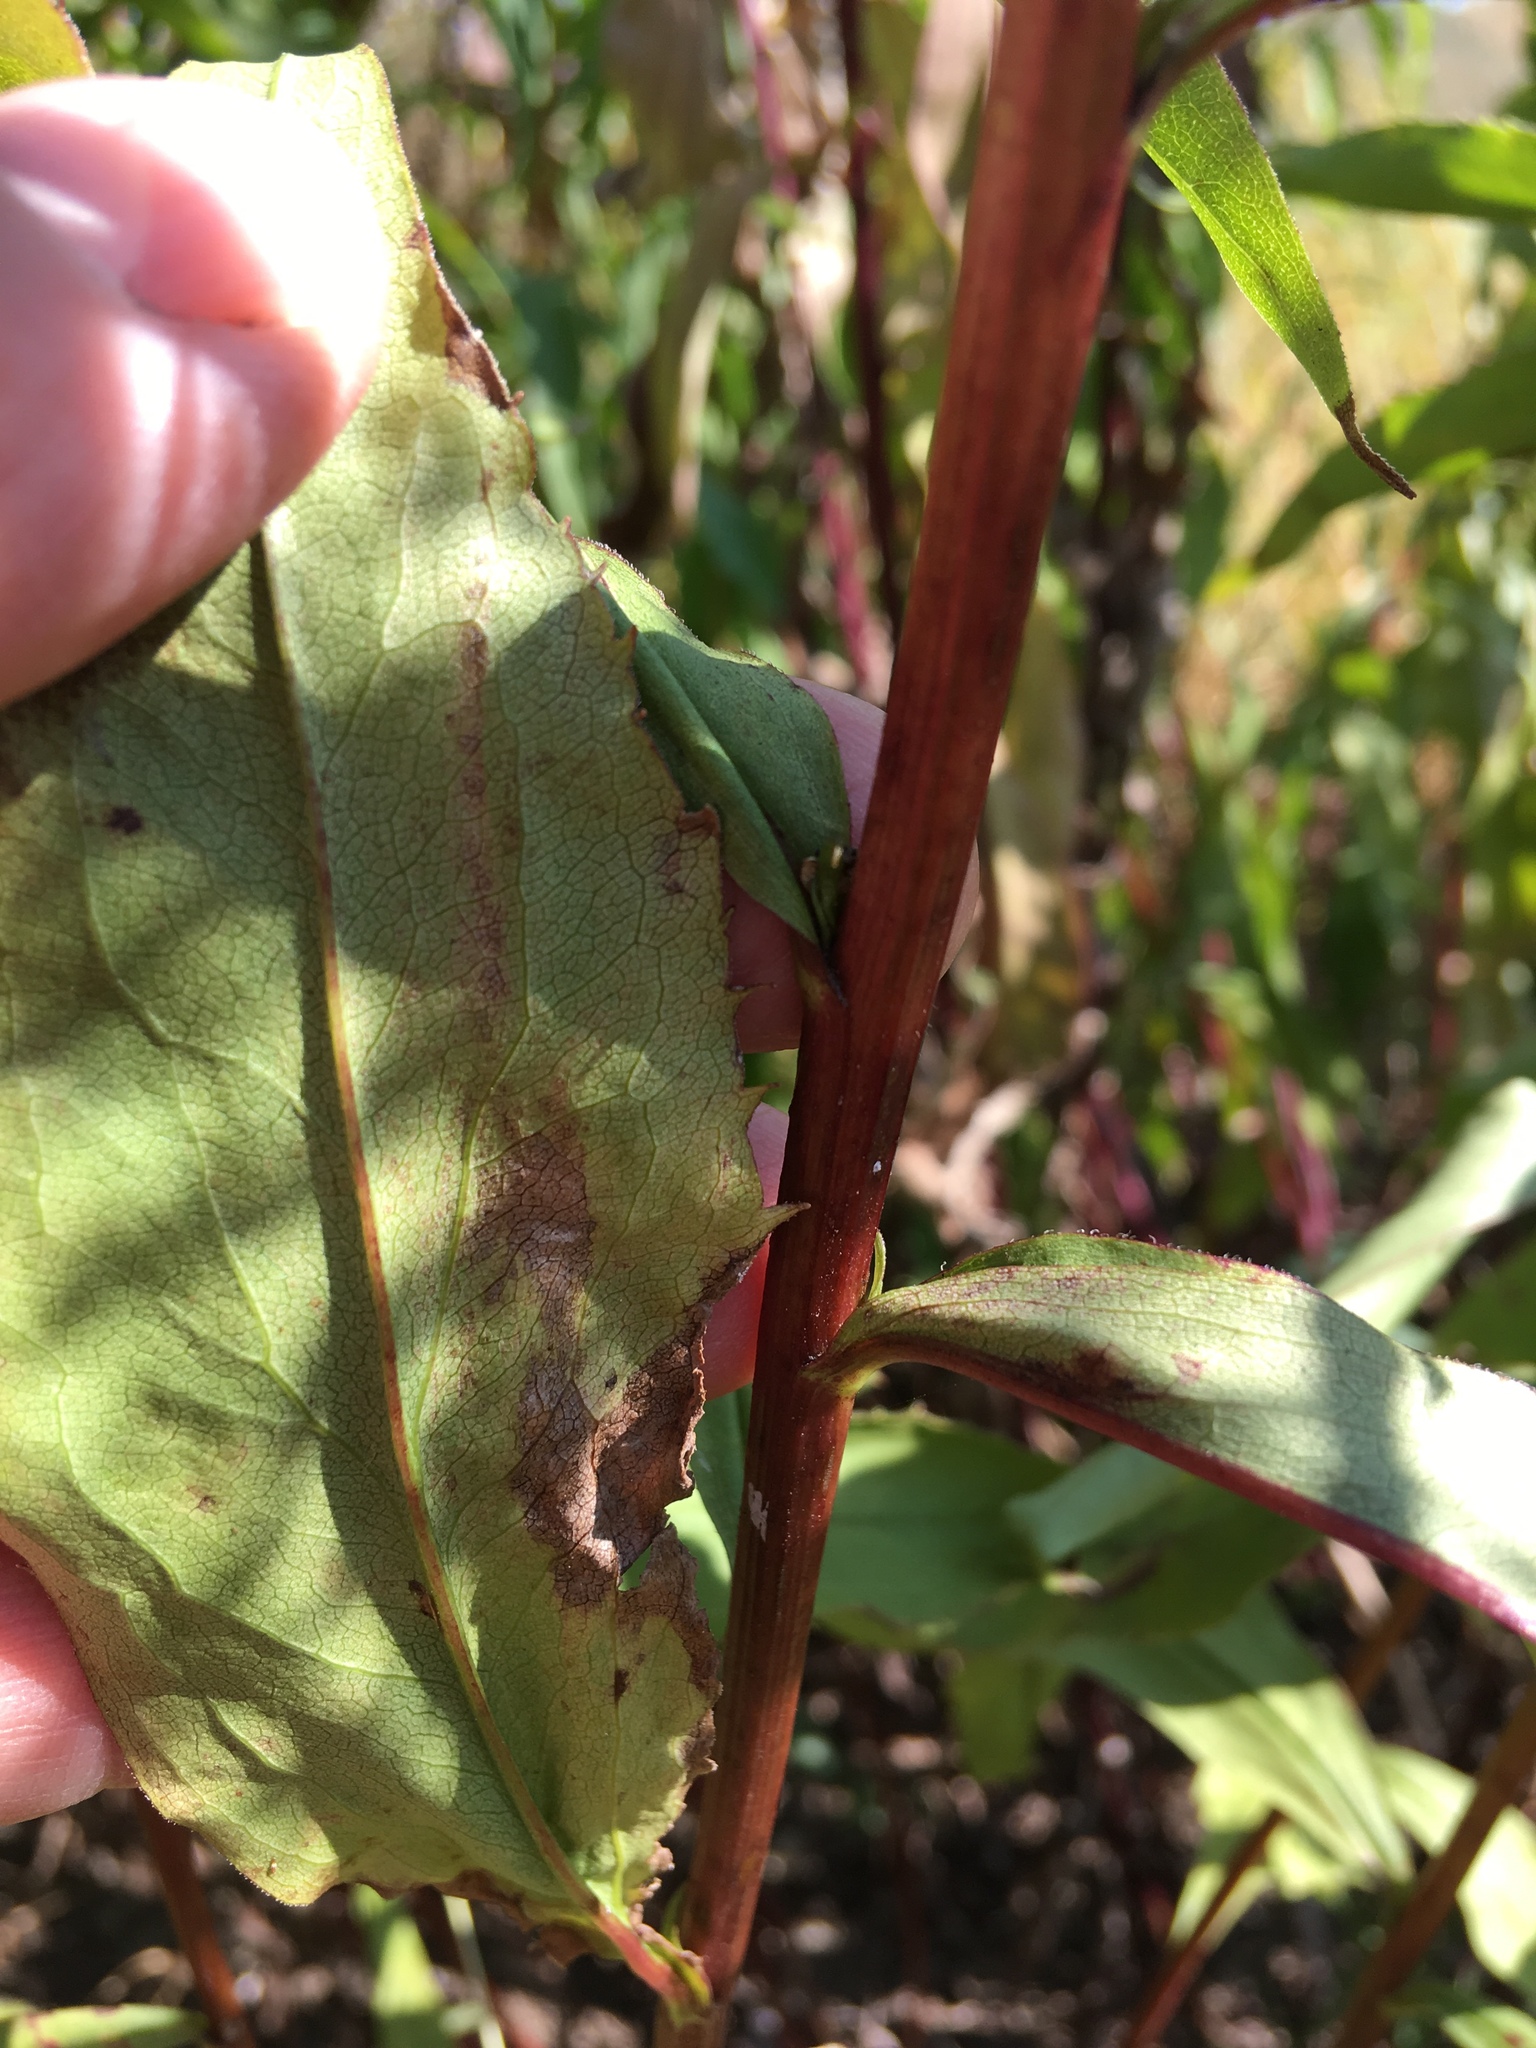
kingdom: Plantae
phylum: Tracheophyta
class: Magnoliopsida
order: Asterales
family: Asteraceae
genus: Solidago
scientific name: Solidago juncea
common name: Early goldenrod
